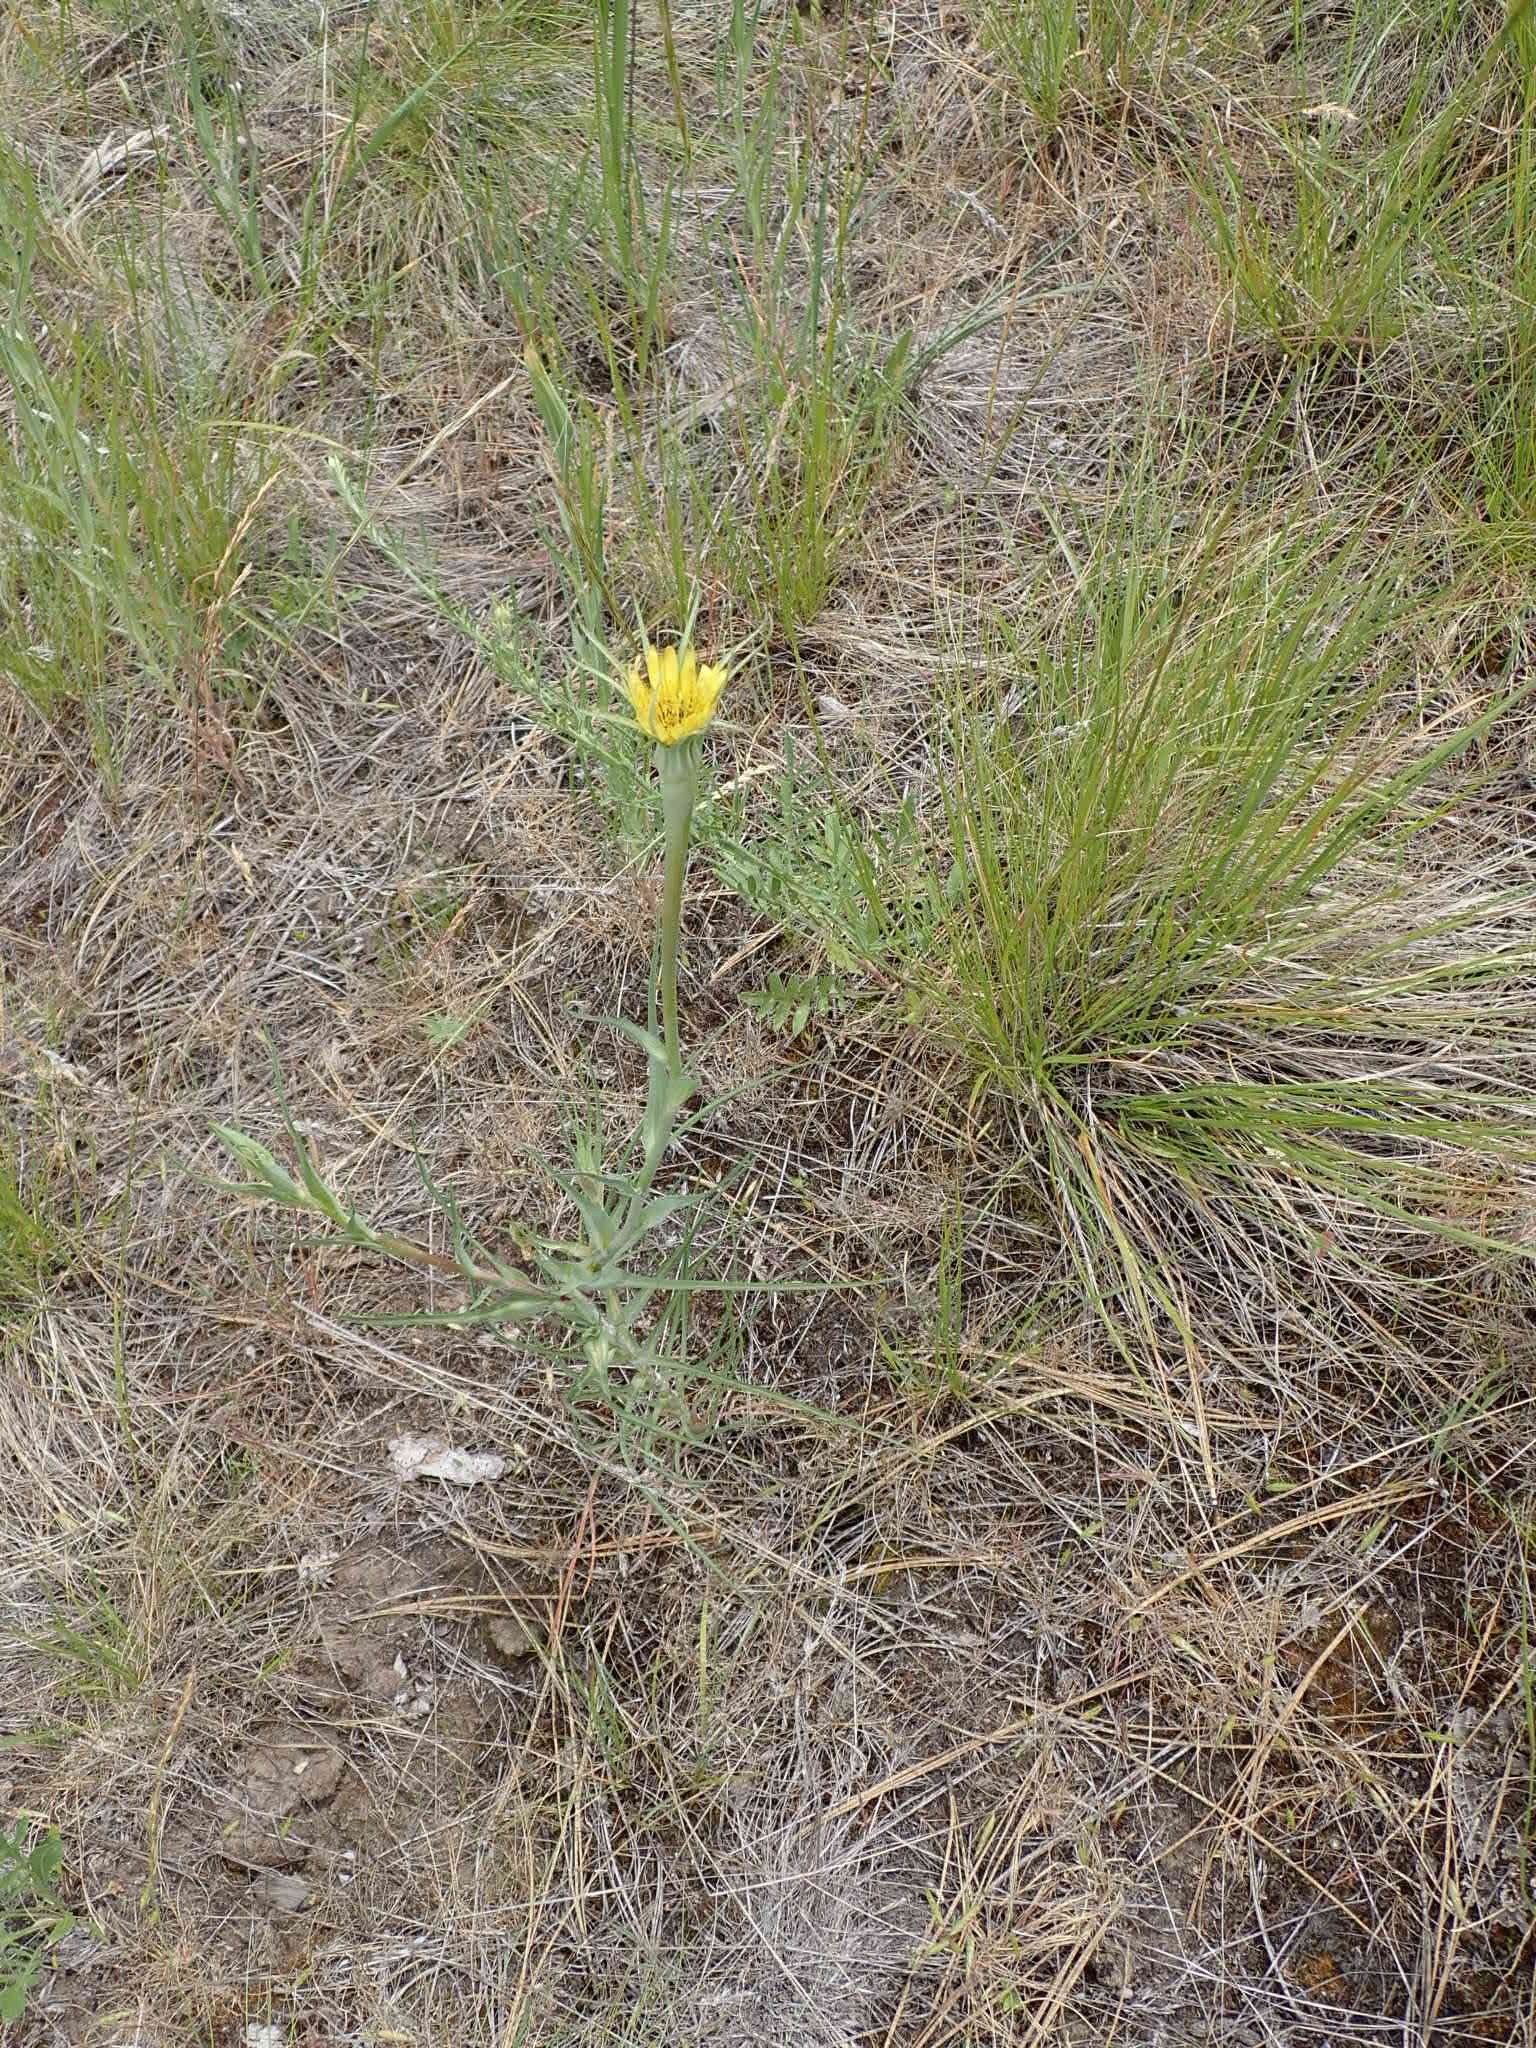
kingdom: Plantae
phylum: Tracheophyta
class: Magnoliopsida
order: Asterales
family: Asteraceae
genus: Tragopogon
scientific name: Tragopogon dubius
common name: Yellow salsify
